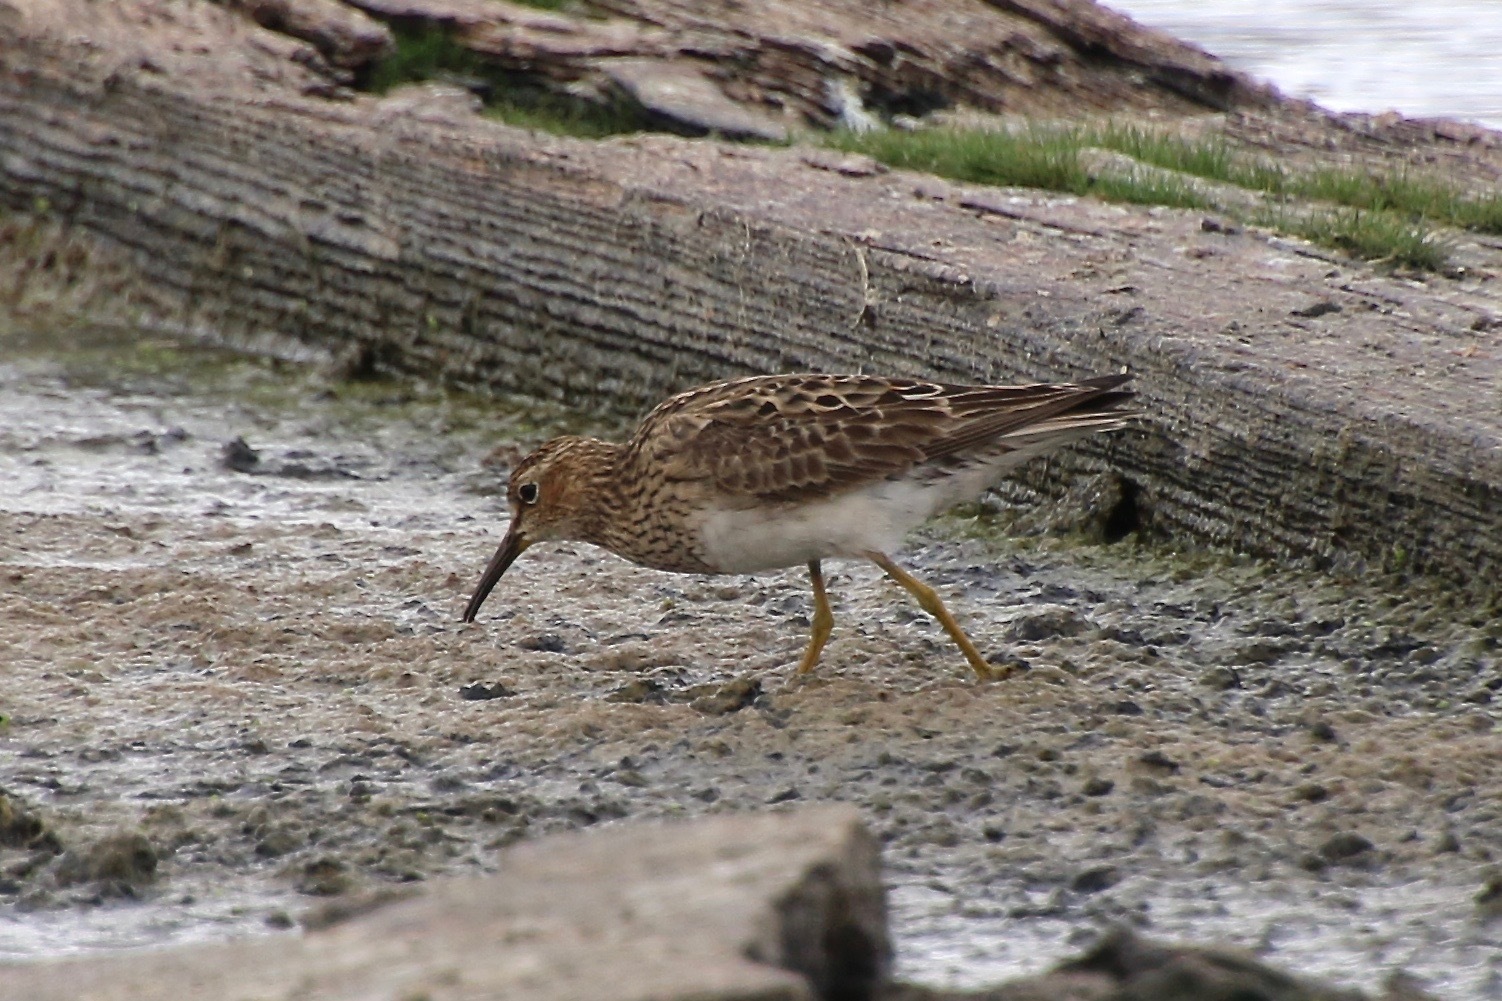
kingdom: Animalia
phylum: Chordata
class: Aves
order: Charadriiformes
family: Scolopacidae
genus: Calidris
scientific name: Calidris melanotos
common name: Pectoral sandpiper
